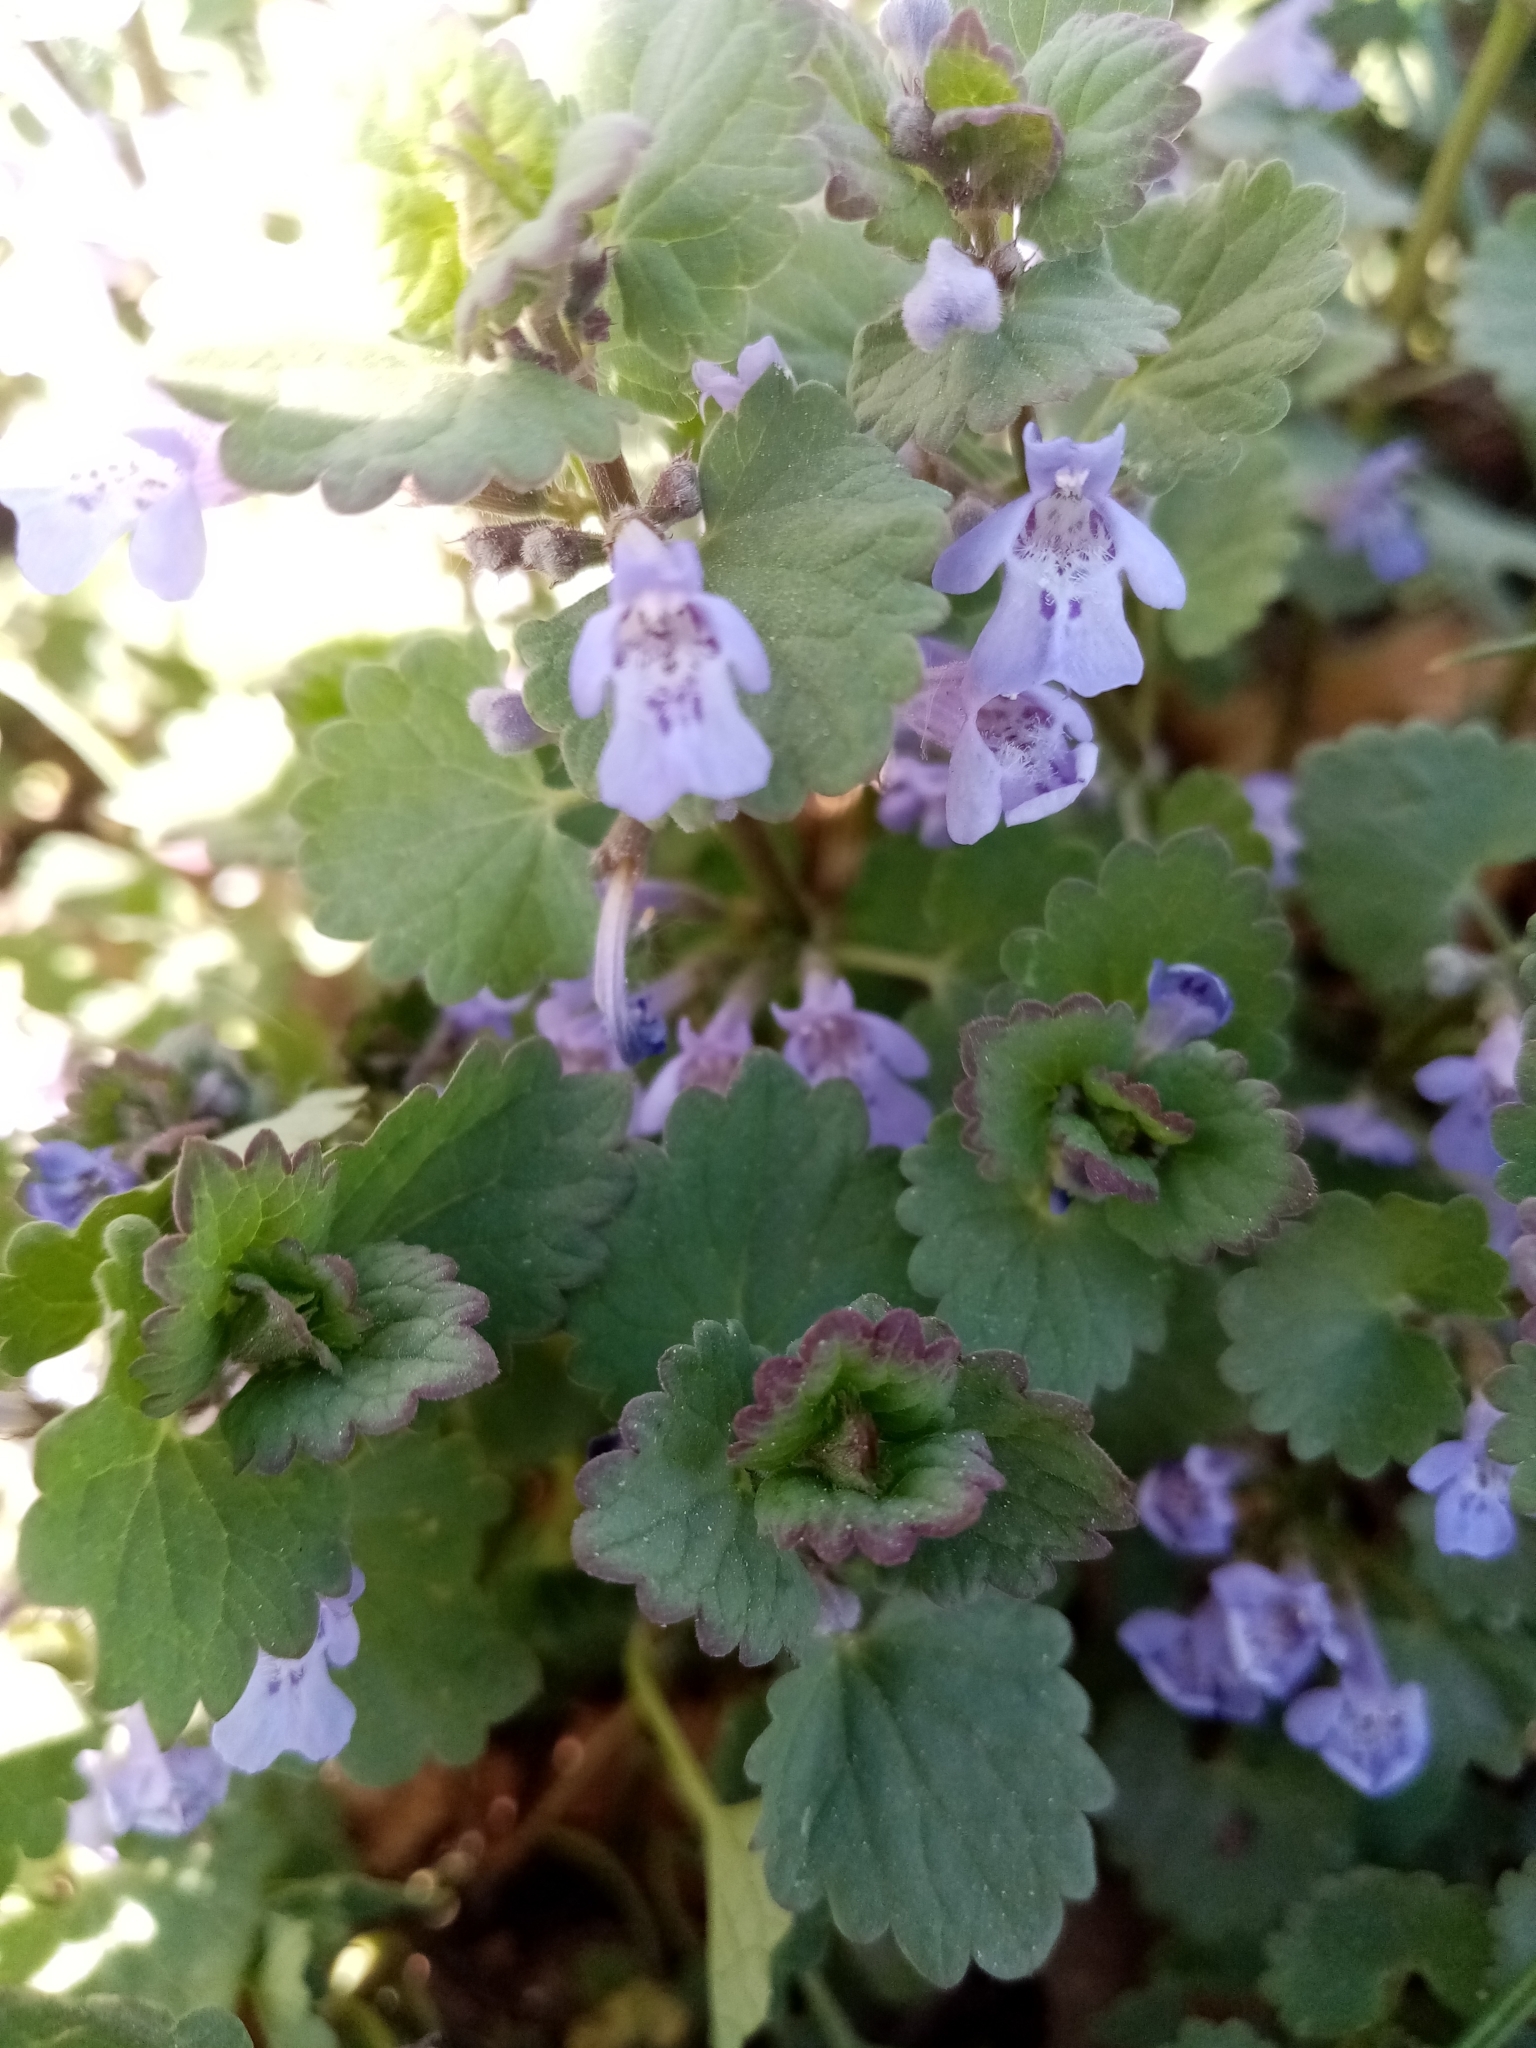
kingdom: Plantae
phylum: Tracheophyta
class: Magnoliopsida
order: Lamiales
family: Lamiaceae
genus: Glechoma
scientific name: Glechoma hederacea
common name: Ground ivy
